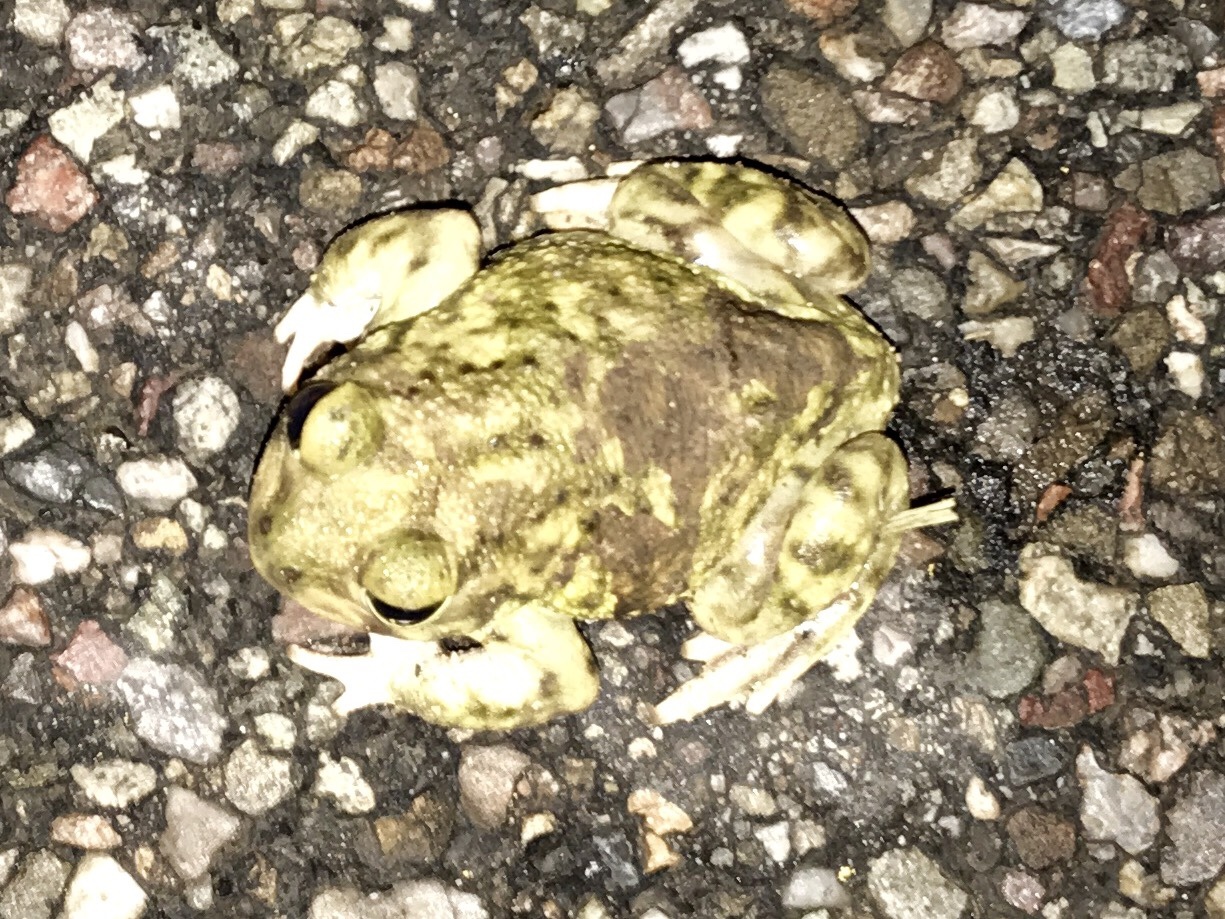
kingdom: Animalia
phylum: Chordata
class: Amphibia
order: Anura
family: Scaphiopodidae
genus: Scaphiopus
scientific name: Scaphiopus couchii
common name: Couch's spadefoot toad
